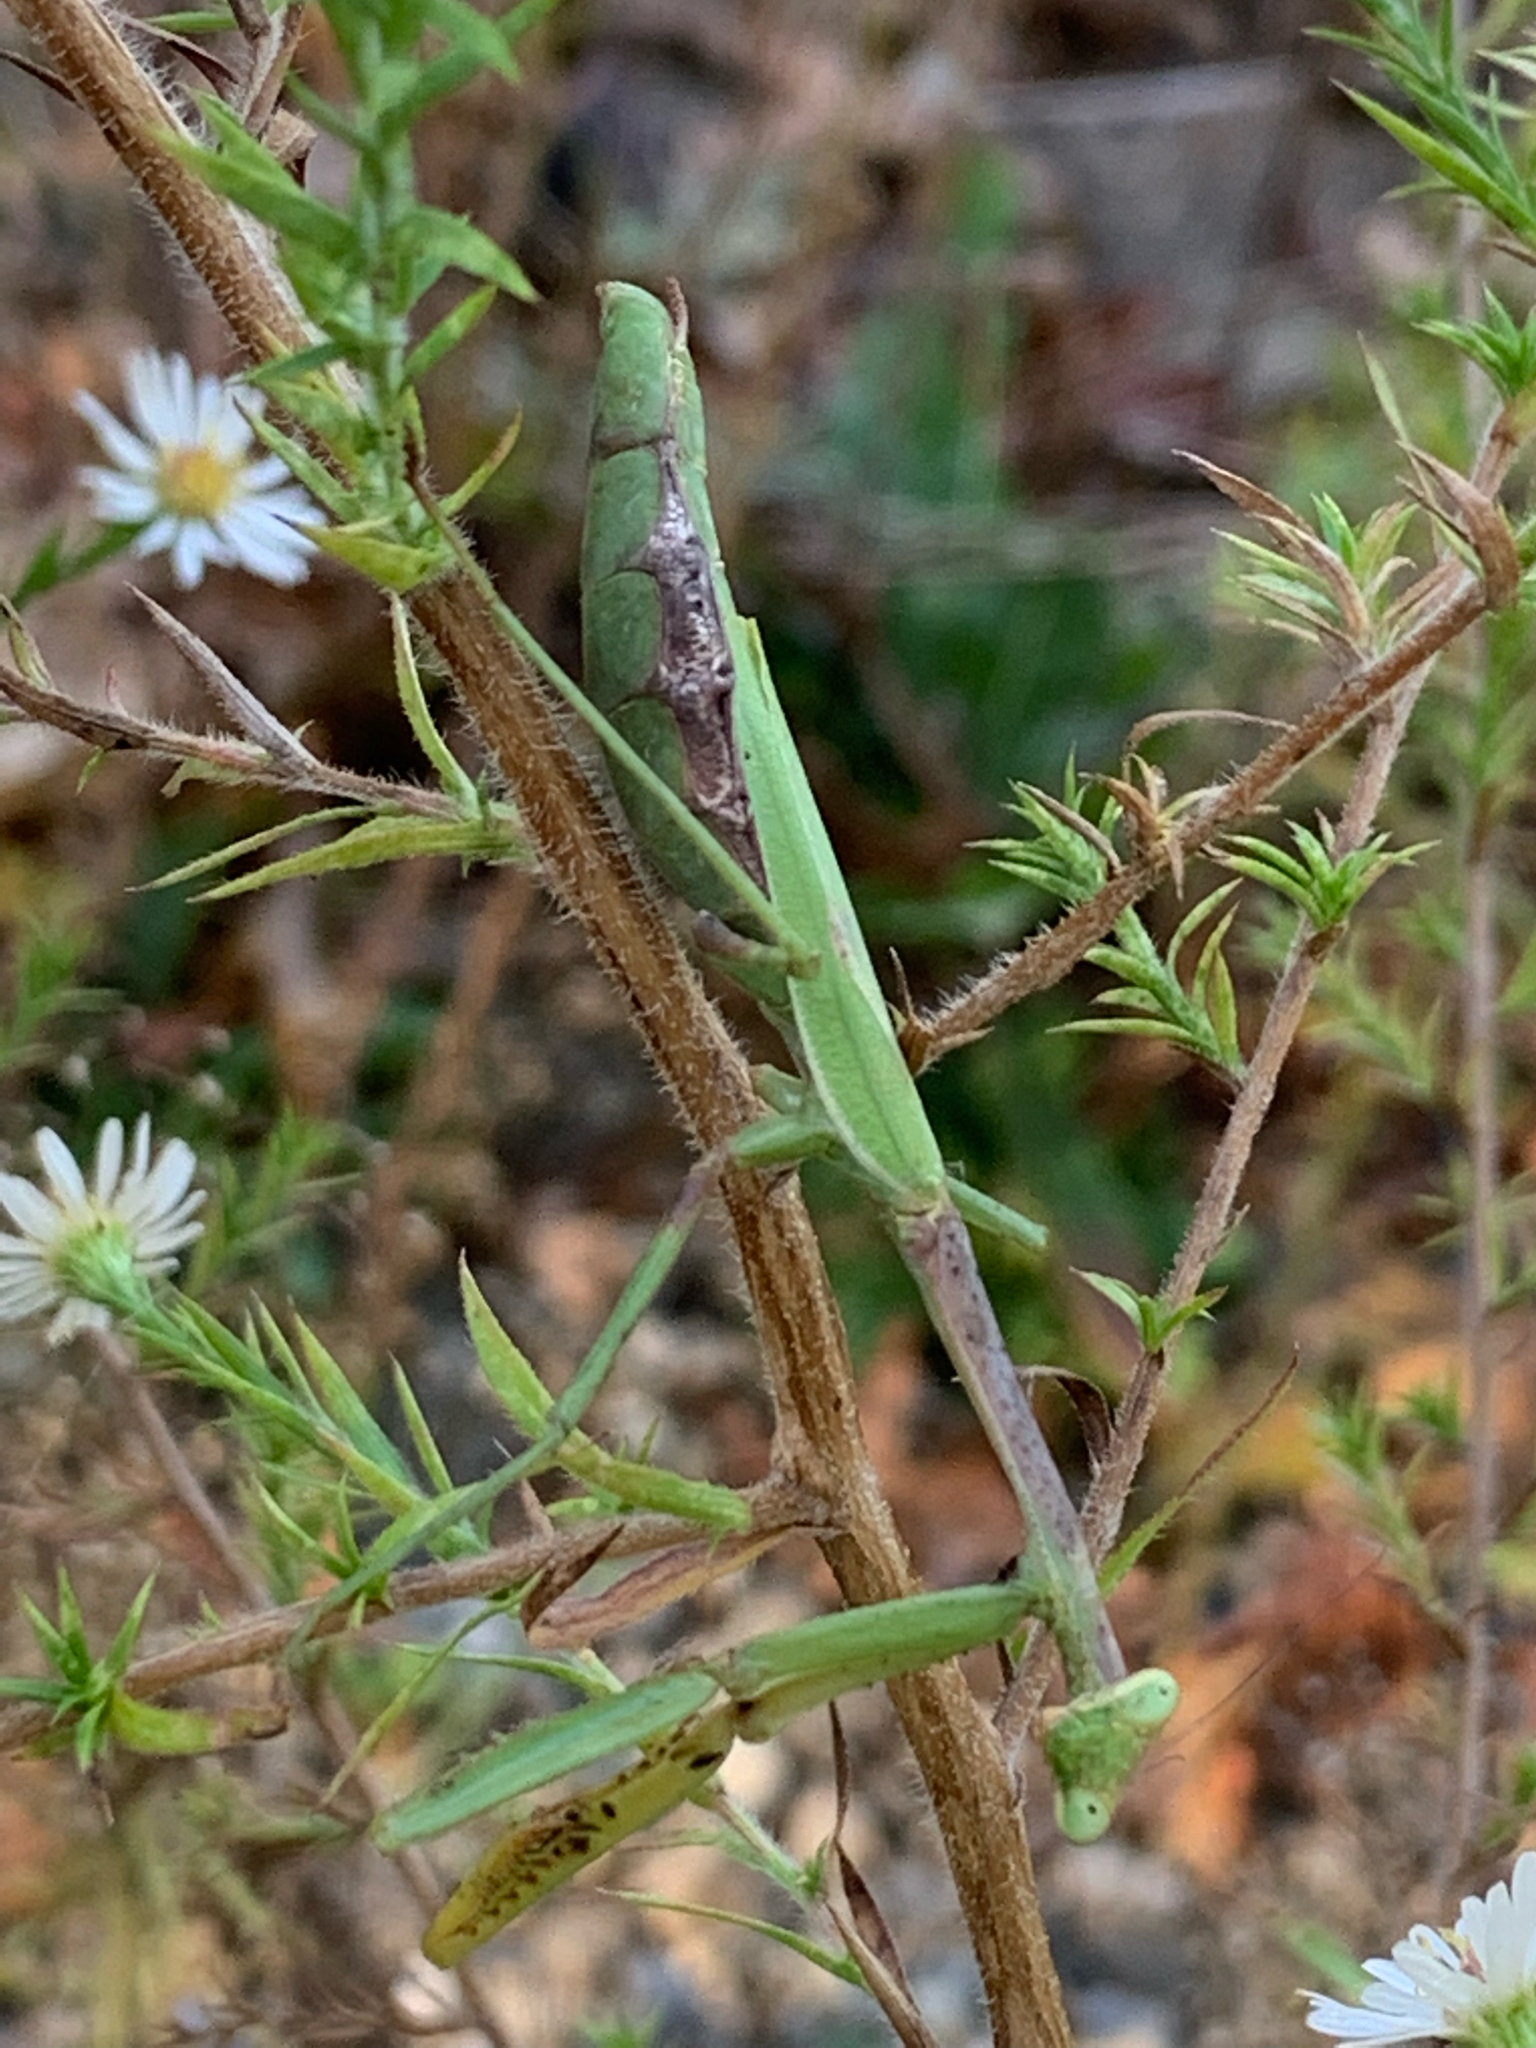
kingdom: Animalia
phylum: Arthropoda
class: Insecta
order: Mantodea
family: Mantidae
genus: Stagmomantis
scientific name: Stagmomantis carolina
